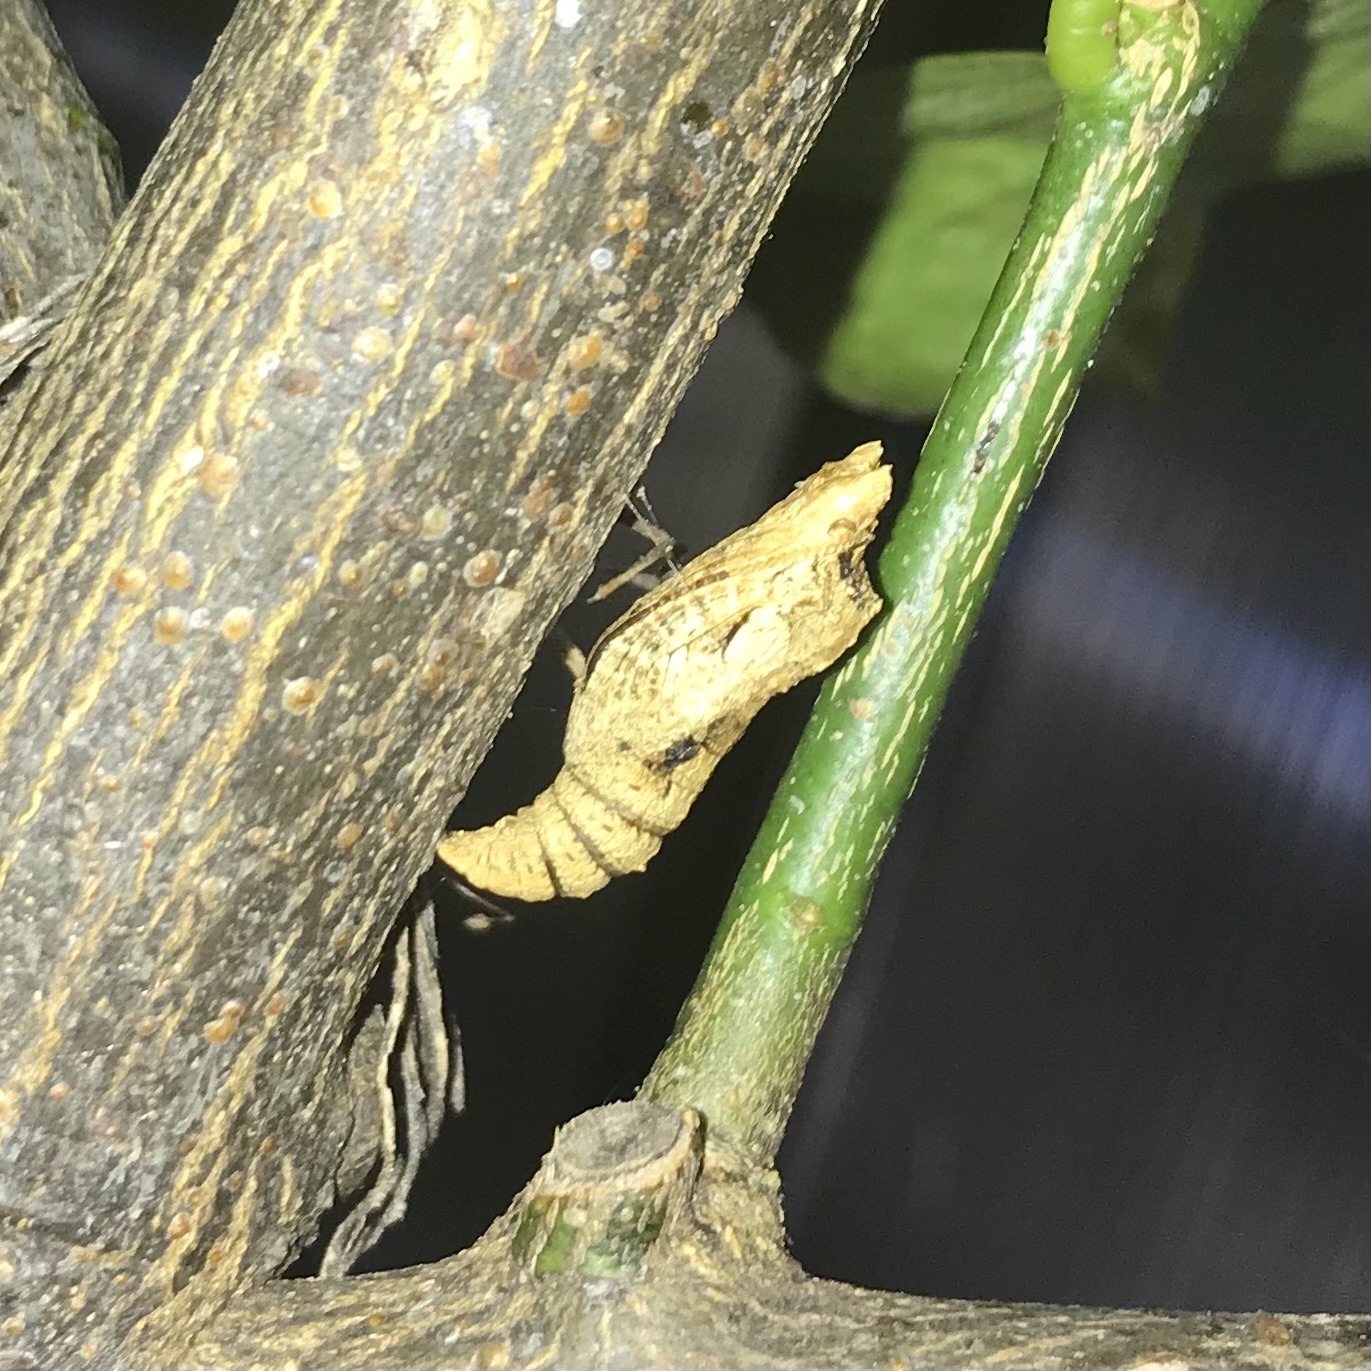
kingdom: Animalia
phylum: Arthropoda
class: Insecta
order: Lepidoptera
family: Papilionidae
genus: Papilio
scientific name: Papilio anactus
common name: Dingy swallowtail
